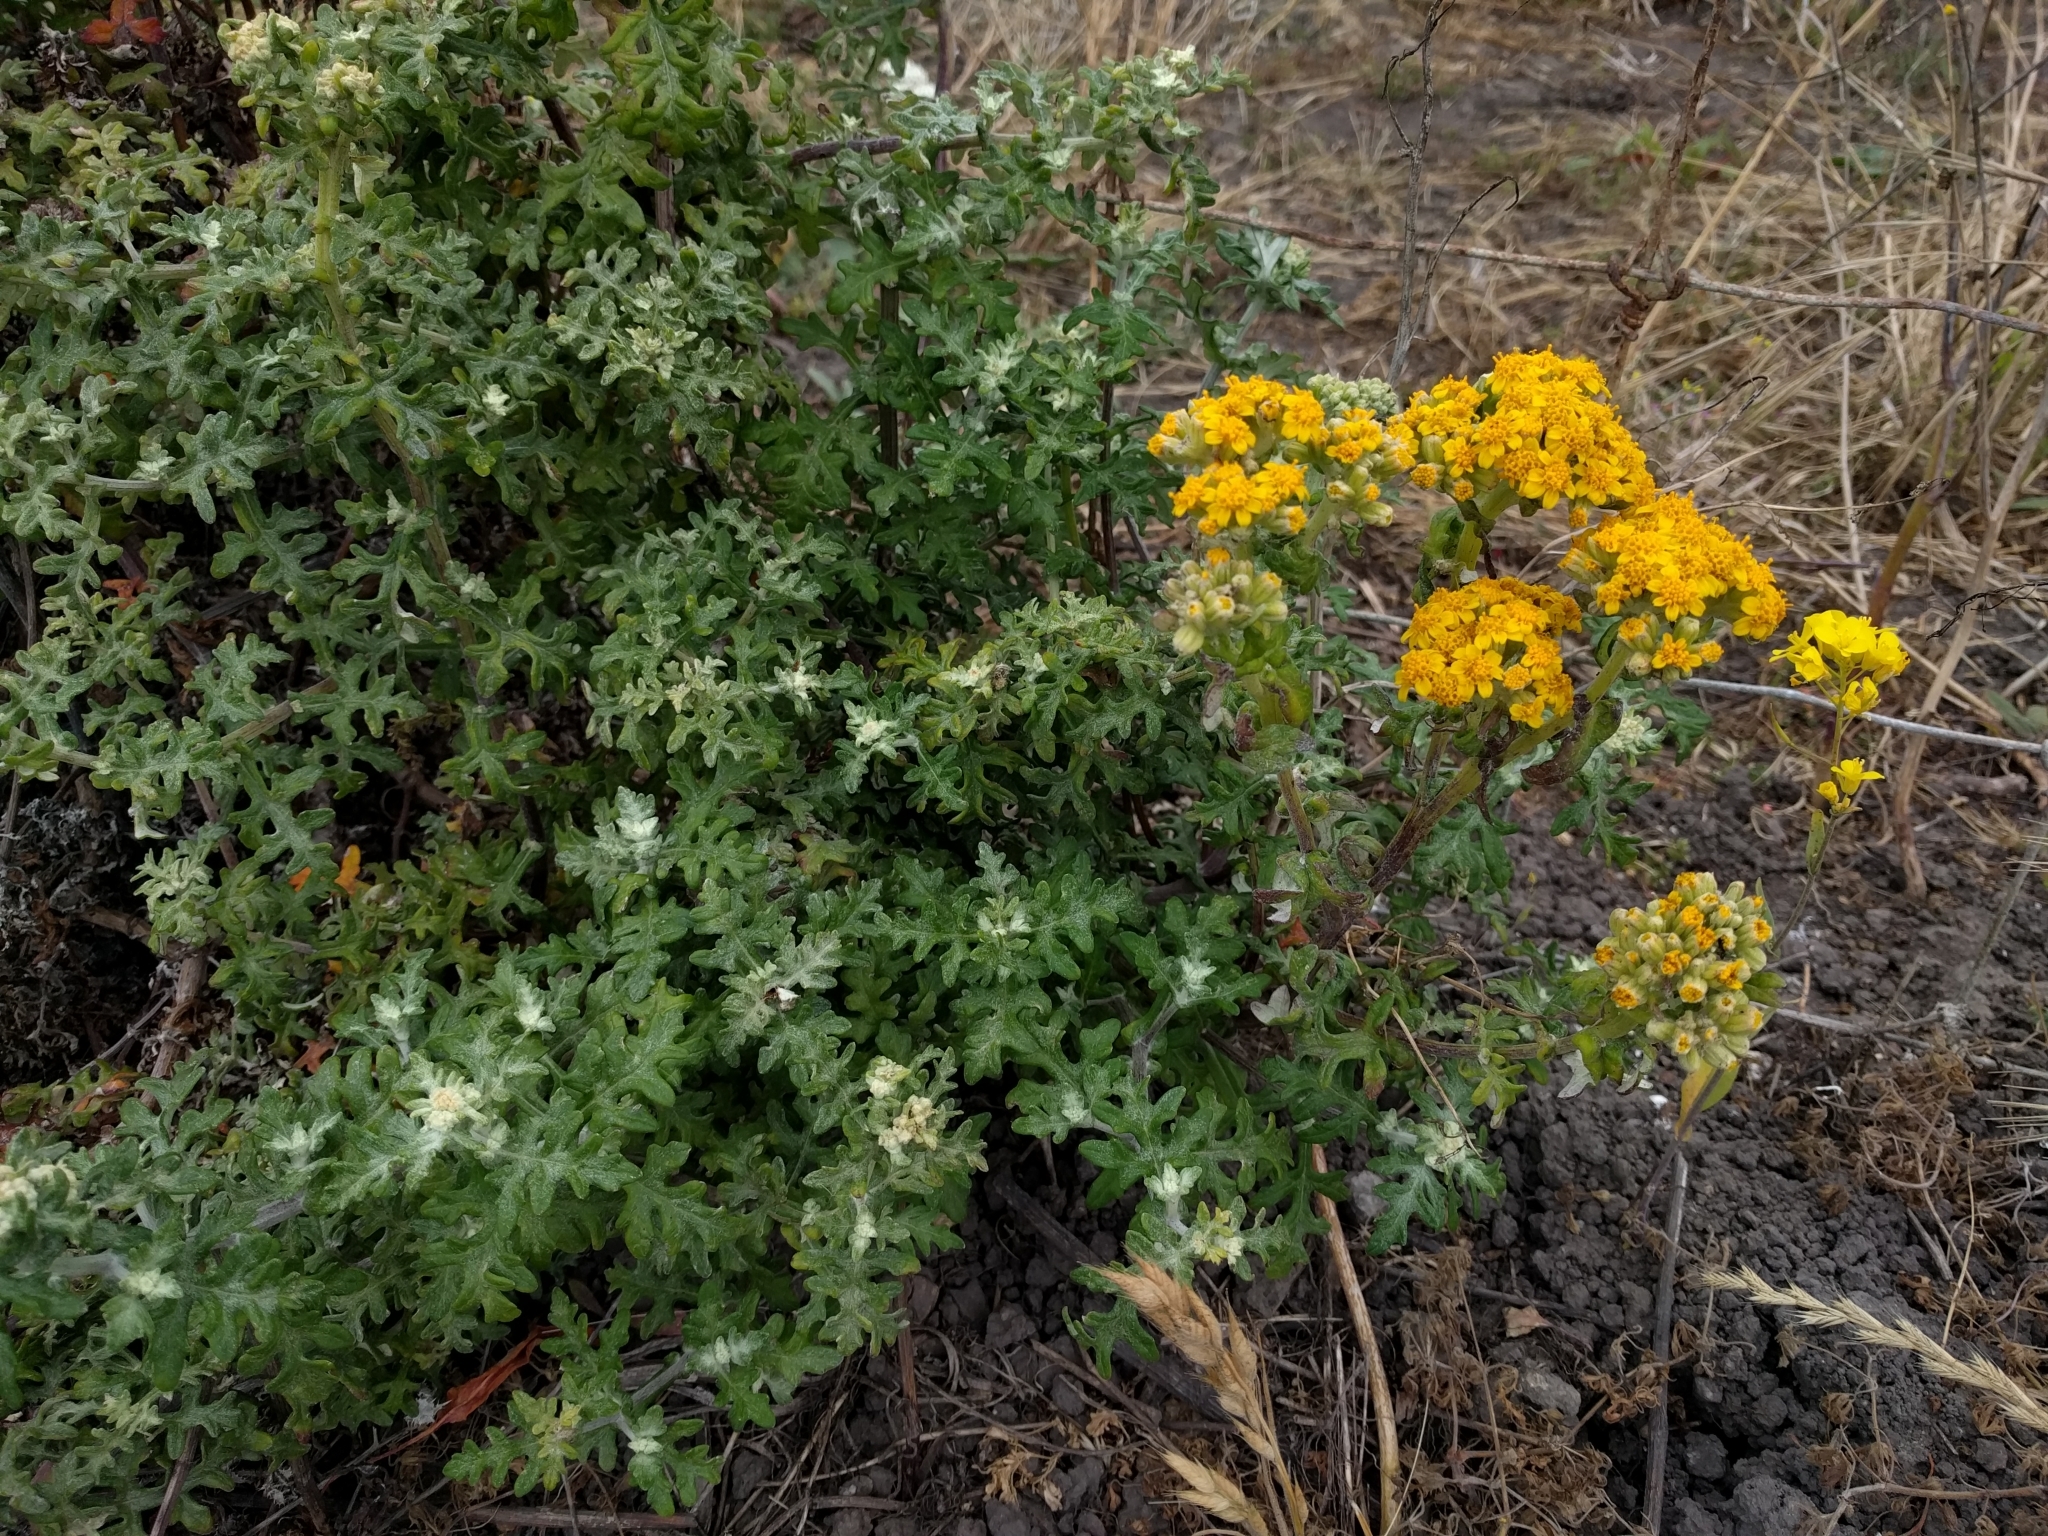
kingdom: Plantae
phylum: Tracheophyta
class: Magnoliopsida
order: Asterales
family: Asteraceae
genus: Eriophyllum
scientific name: Eriophyllum staechadifolium
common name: Lizardtail
